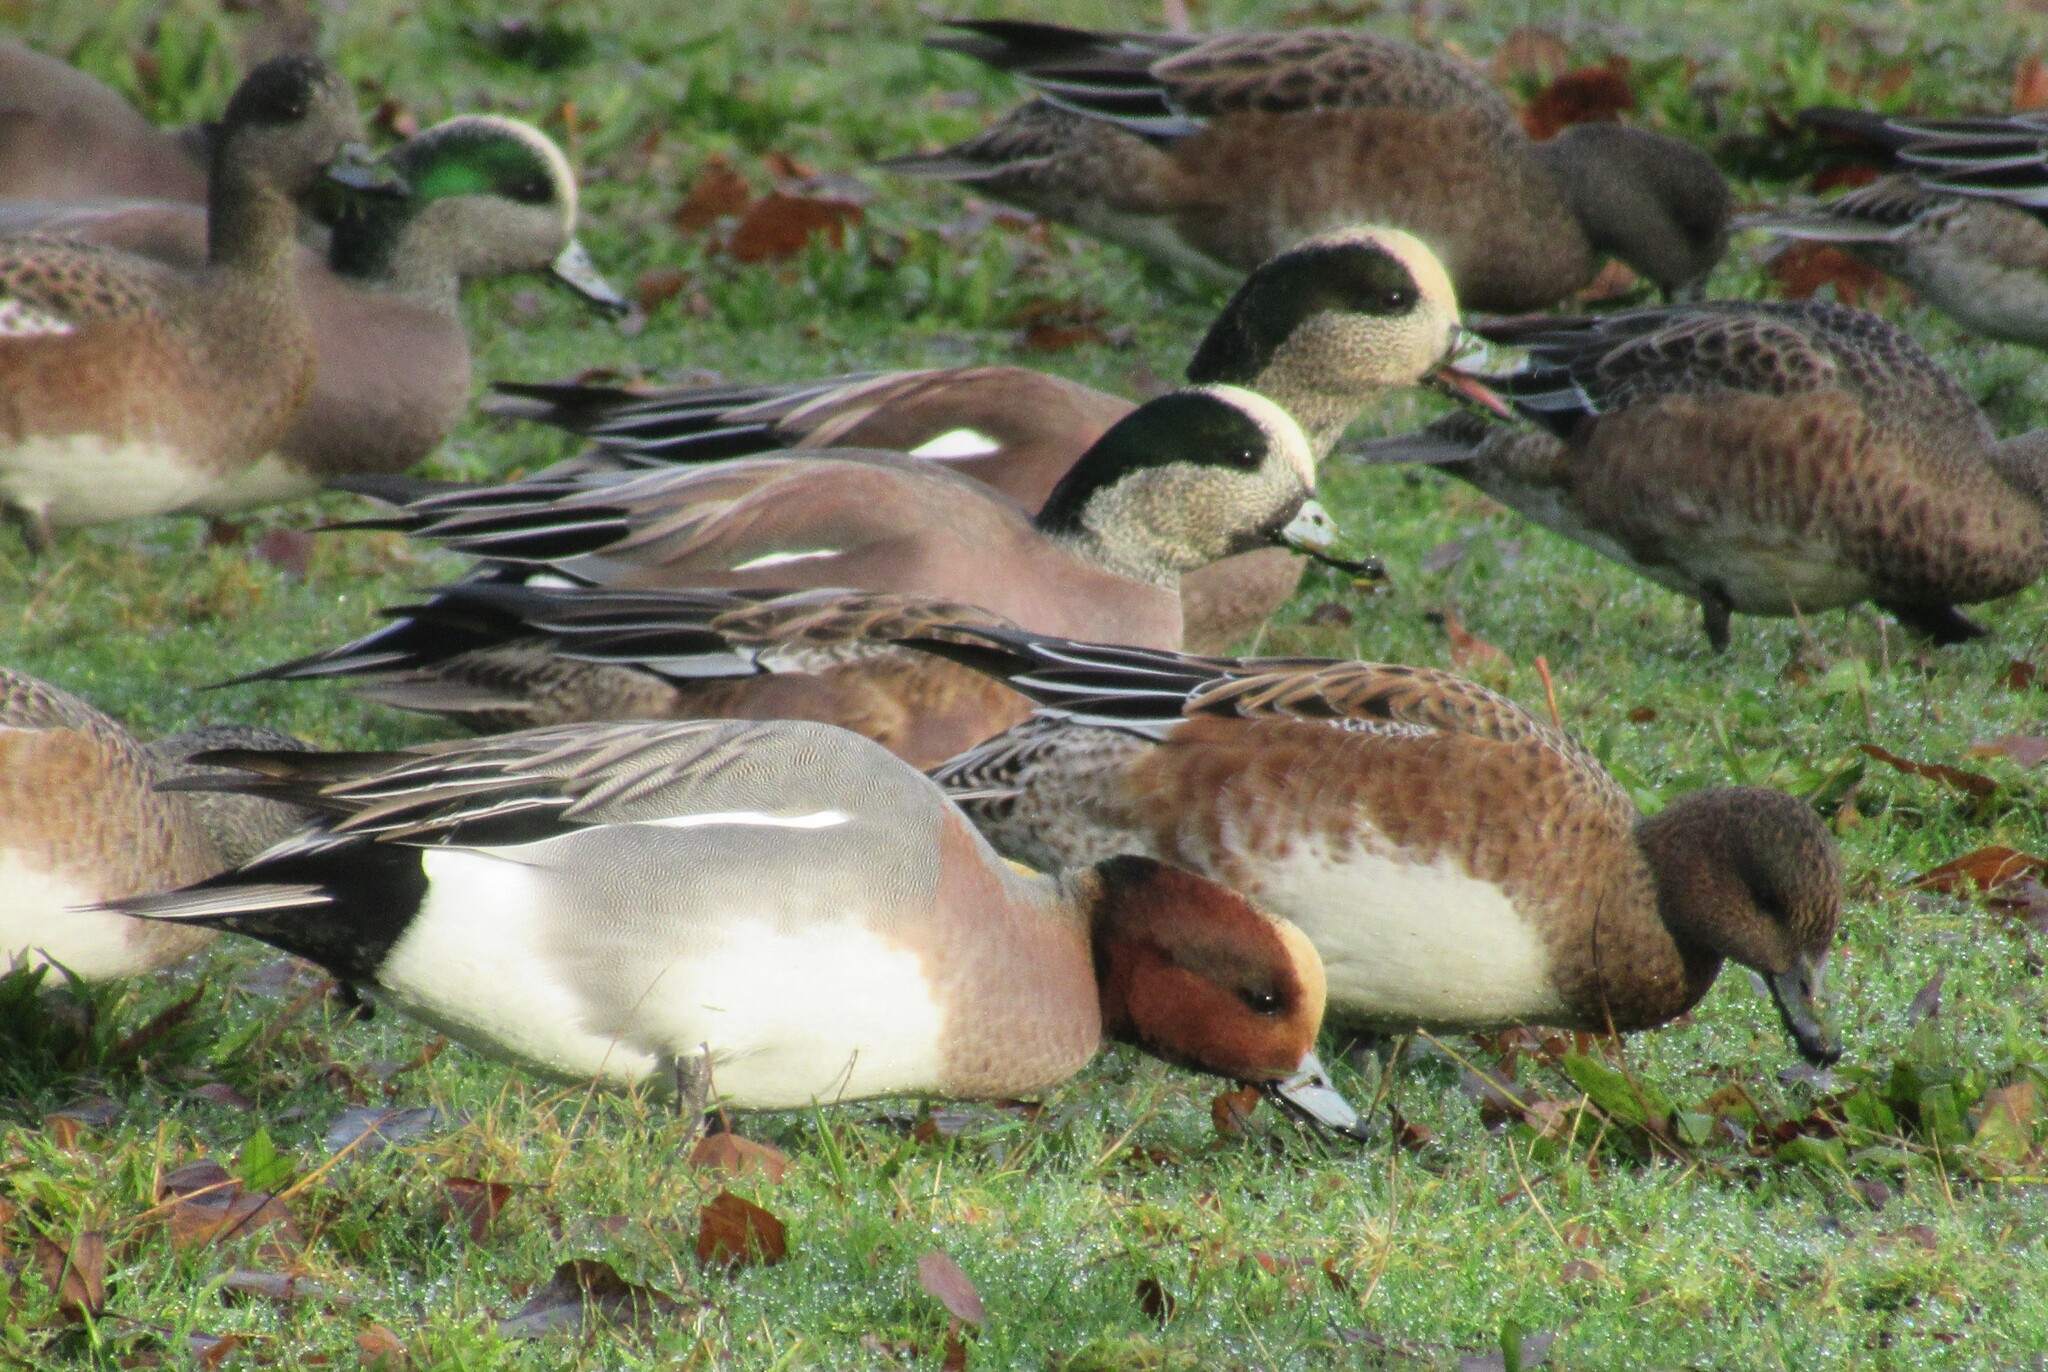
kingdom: Animalia
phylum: Chordata
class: Aves
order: Anseriformes
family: Anatidae
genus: Mareca
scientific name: Mareca penelope
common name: Eurasian wigeon
